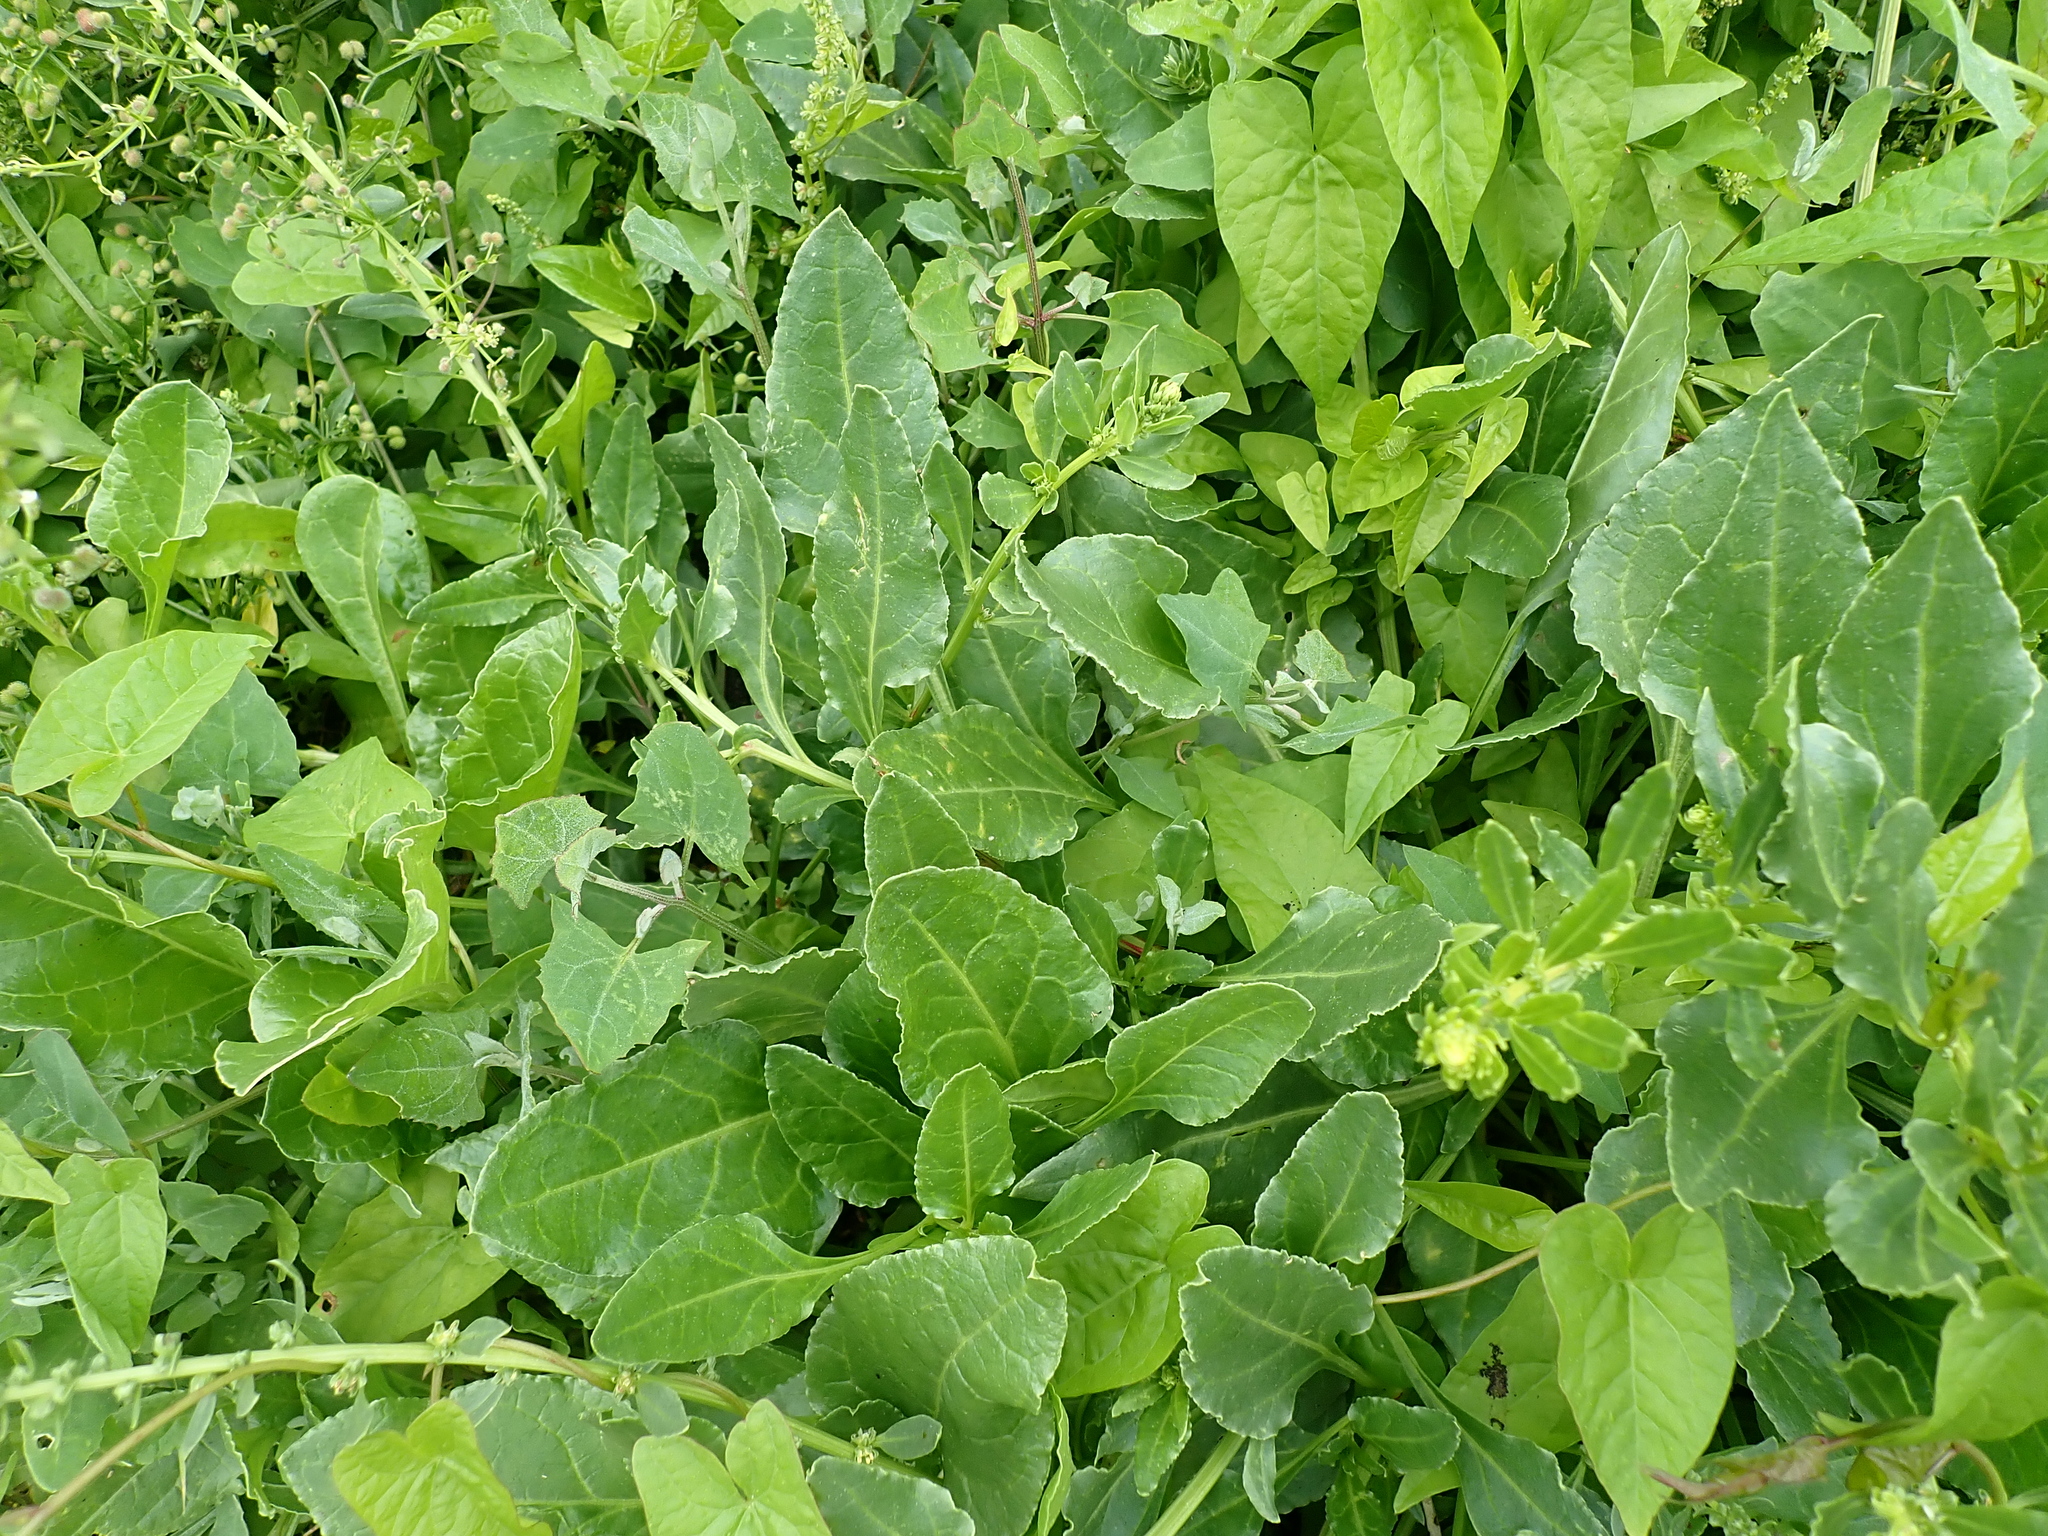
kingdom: Plantae
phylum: Tracheophyta
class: Magnoliopsida
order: Caryophyllales
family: Amaranthaceae
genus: Beta
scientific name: Beta vulgaris
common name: Beet
